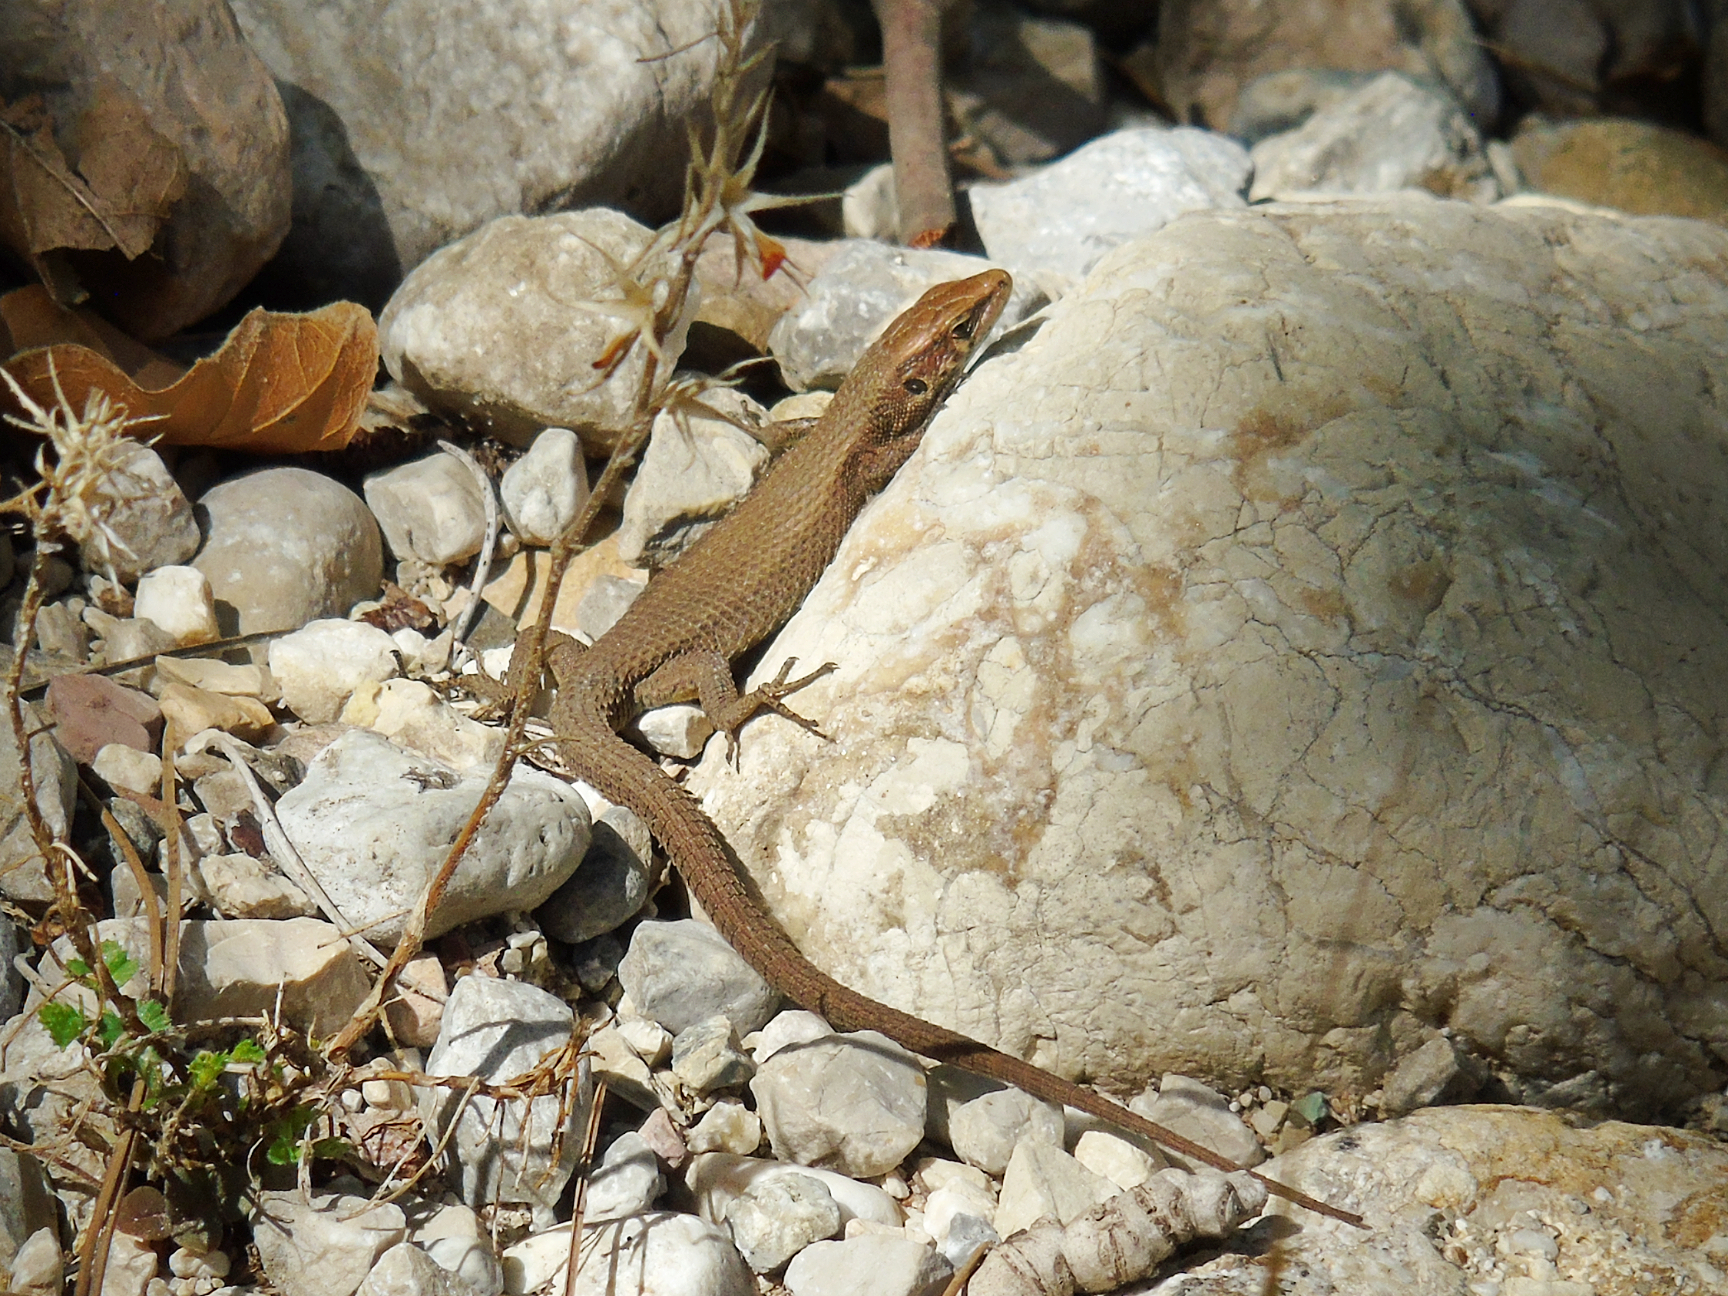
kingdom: Animalia
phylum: Chordata
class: Squamata
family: Lacertidae
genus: Algyroides
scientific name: Algyroides moreoticus
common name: Greek algyroides
